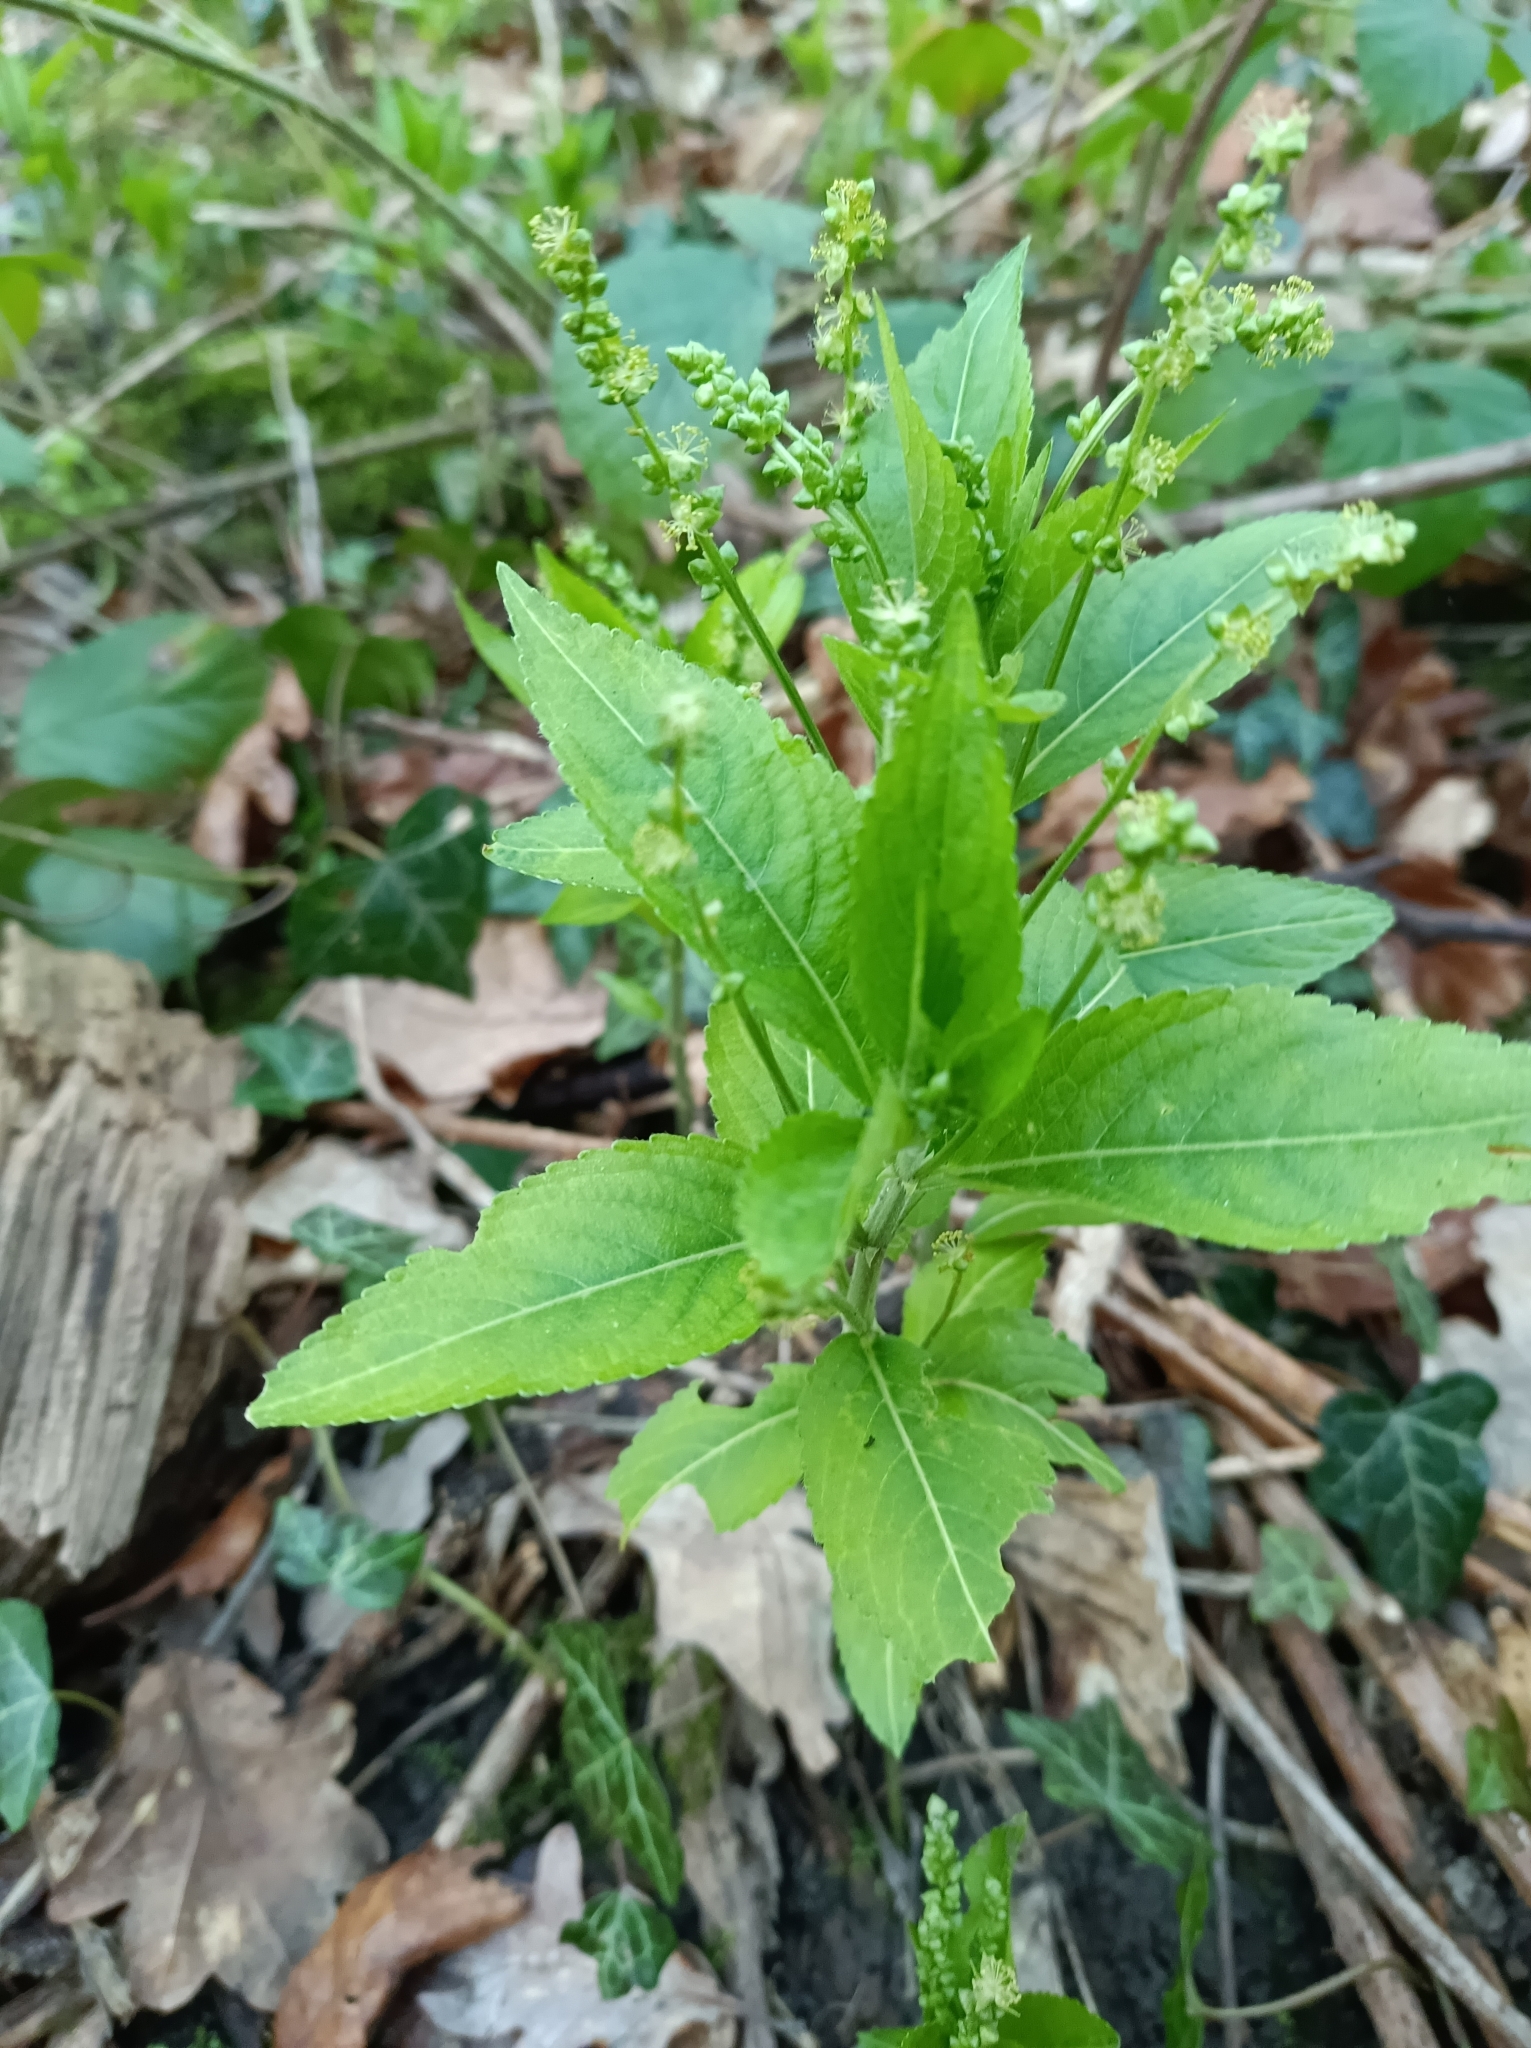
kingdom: Plantae
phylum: Tracheophyta
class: Magnoliopsida
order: Malpighiales
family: Euphorbiaceae
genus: Mercurialis
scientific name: Mercurialis perennis
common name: Dog mercury
